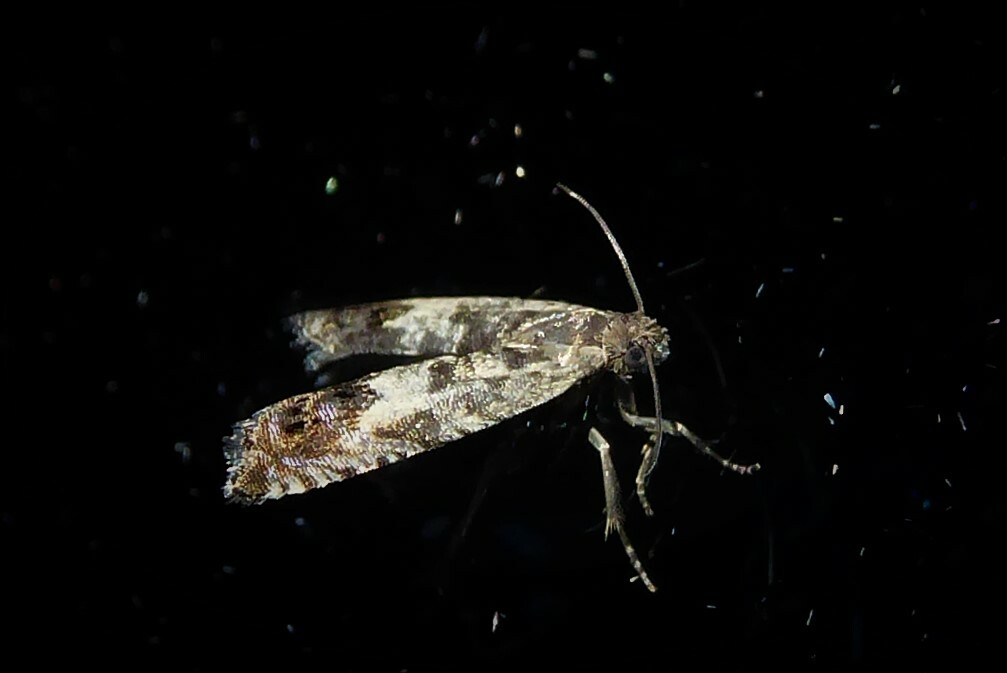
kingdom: Animalia
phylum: Arthropoda
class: Insecta
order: Lepidoptera
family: Tortricidae
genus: Cydia
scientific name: Cydia succedana
